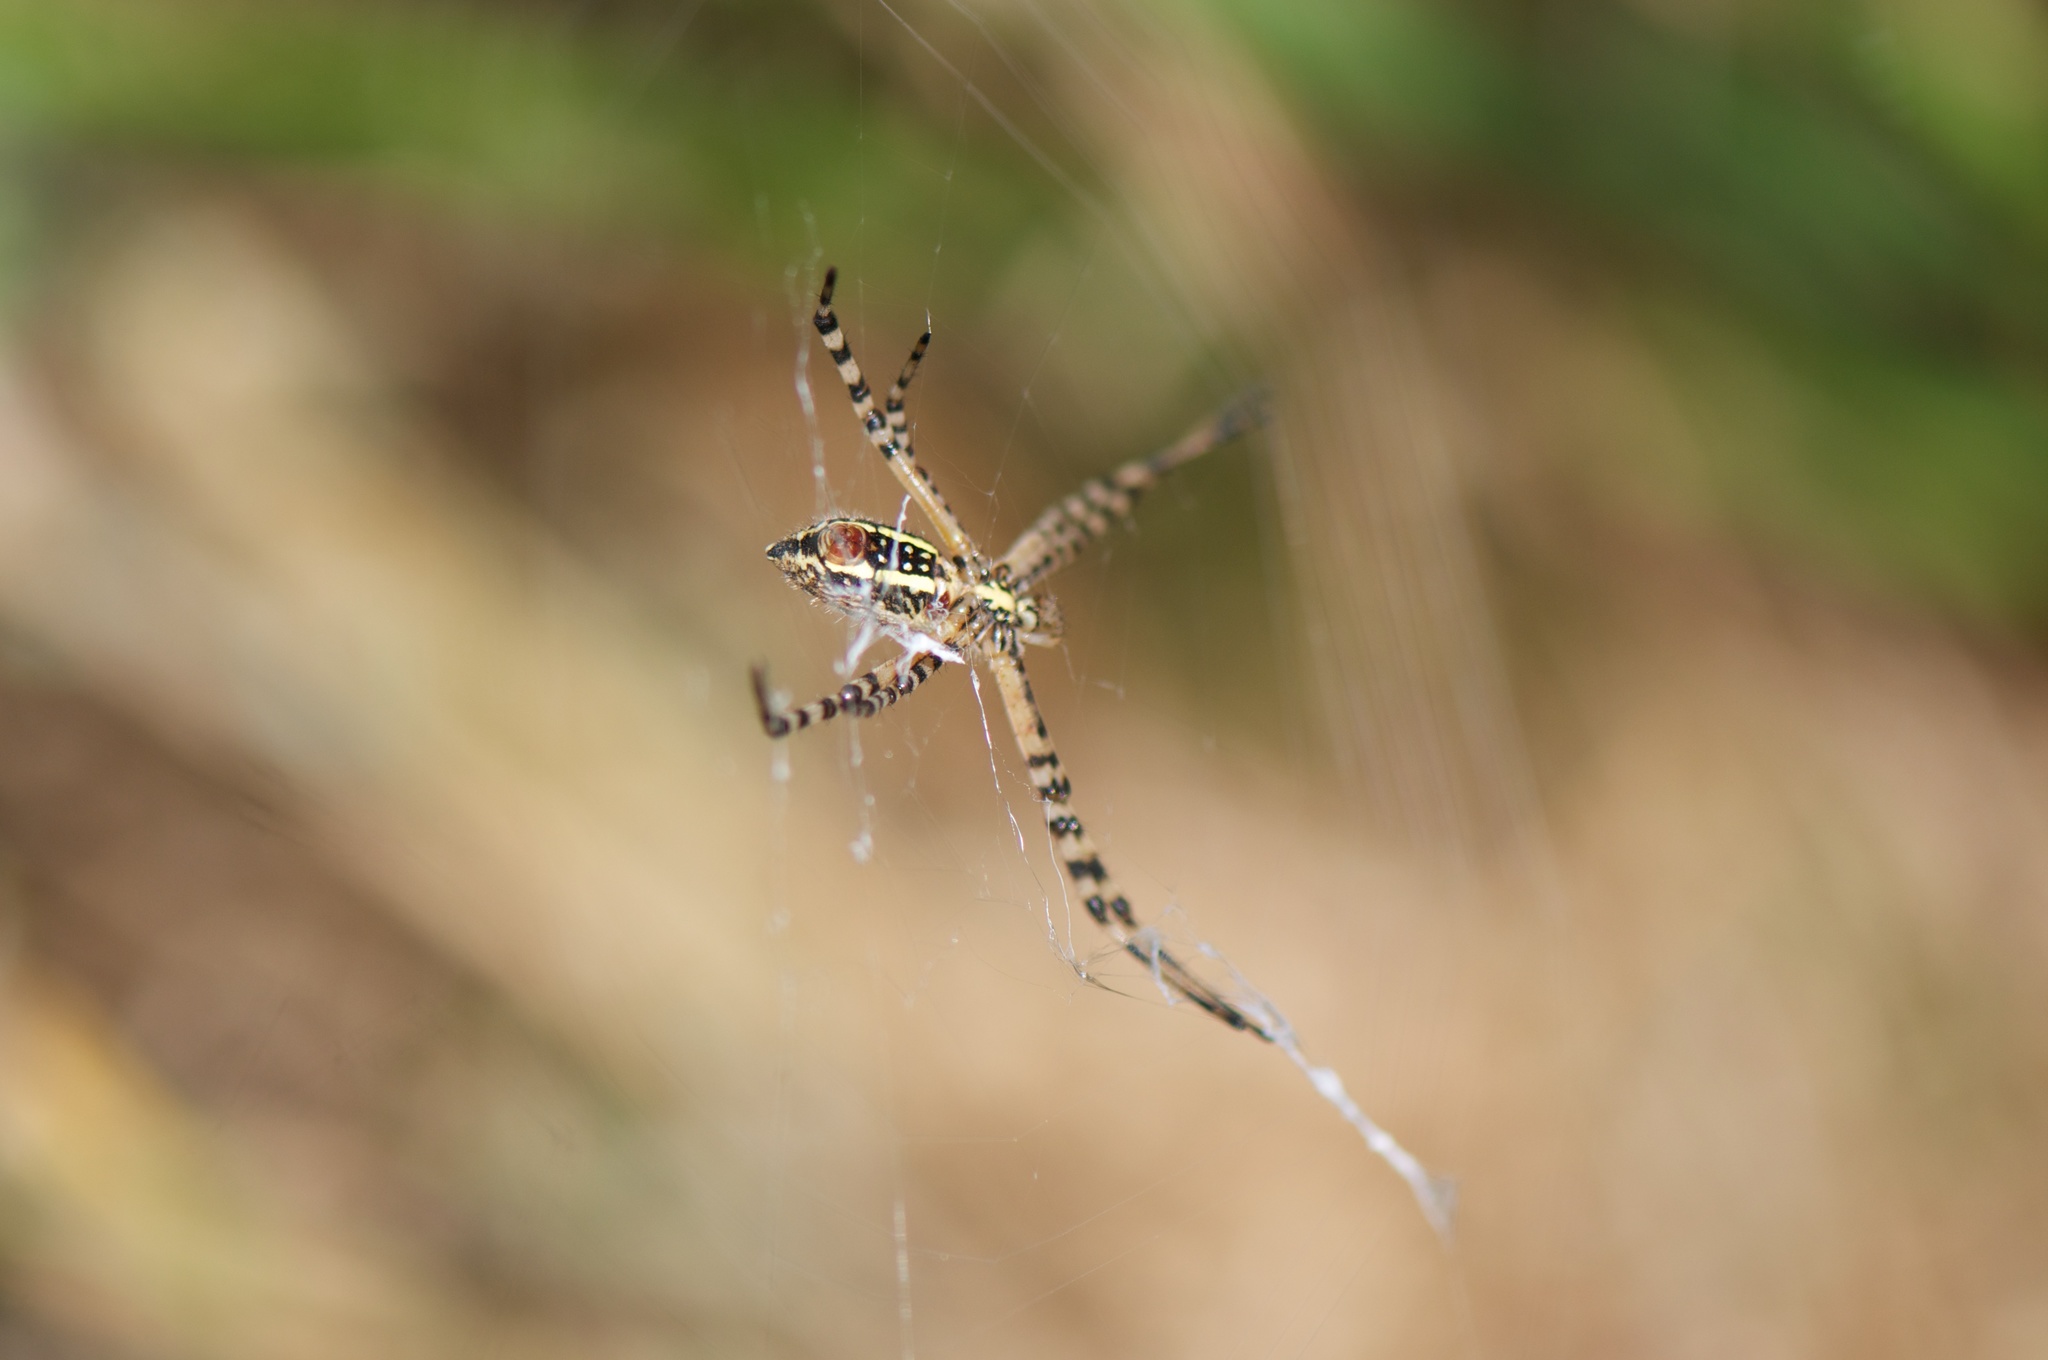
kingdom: Animalia
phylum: Arthropoda
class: Arachnida
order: Araneae
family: Araneidae
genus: Argiope
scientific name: Argiope trifasciata
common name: Banded garden spider
